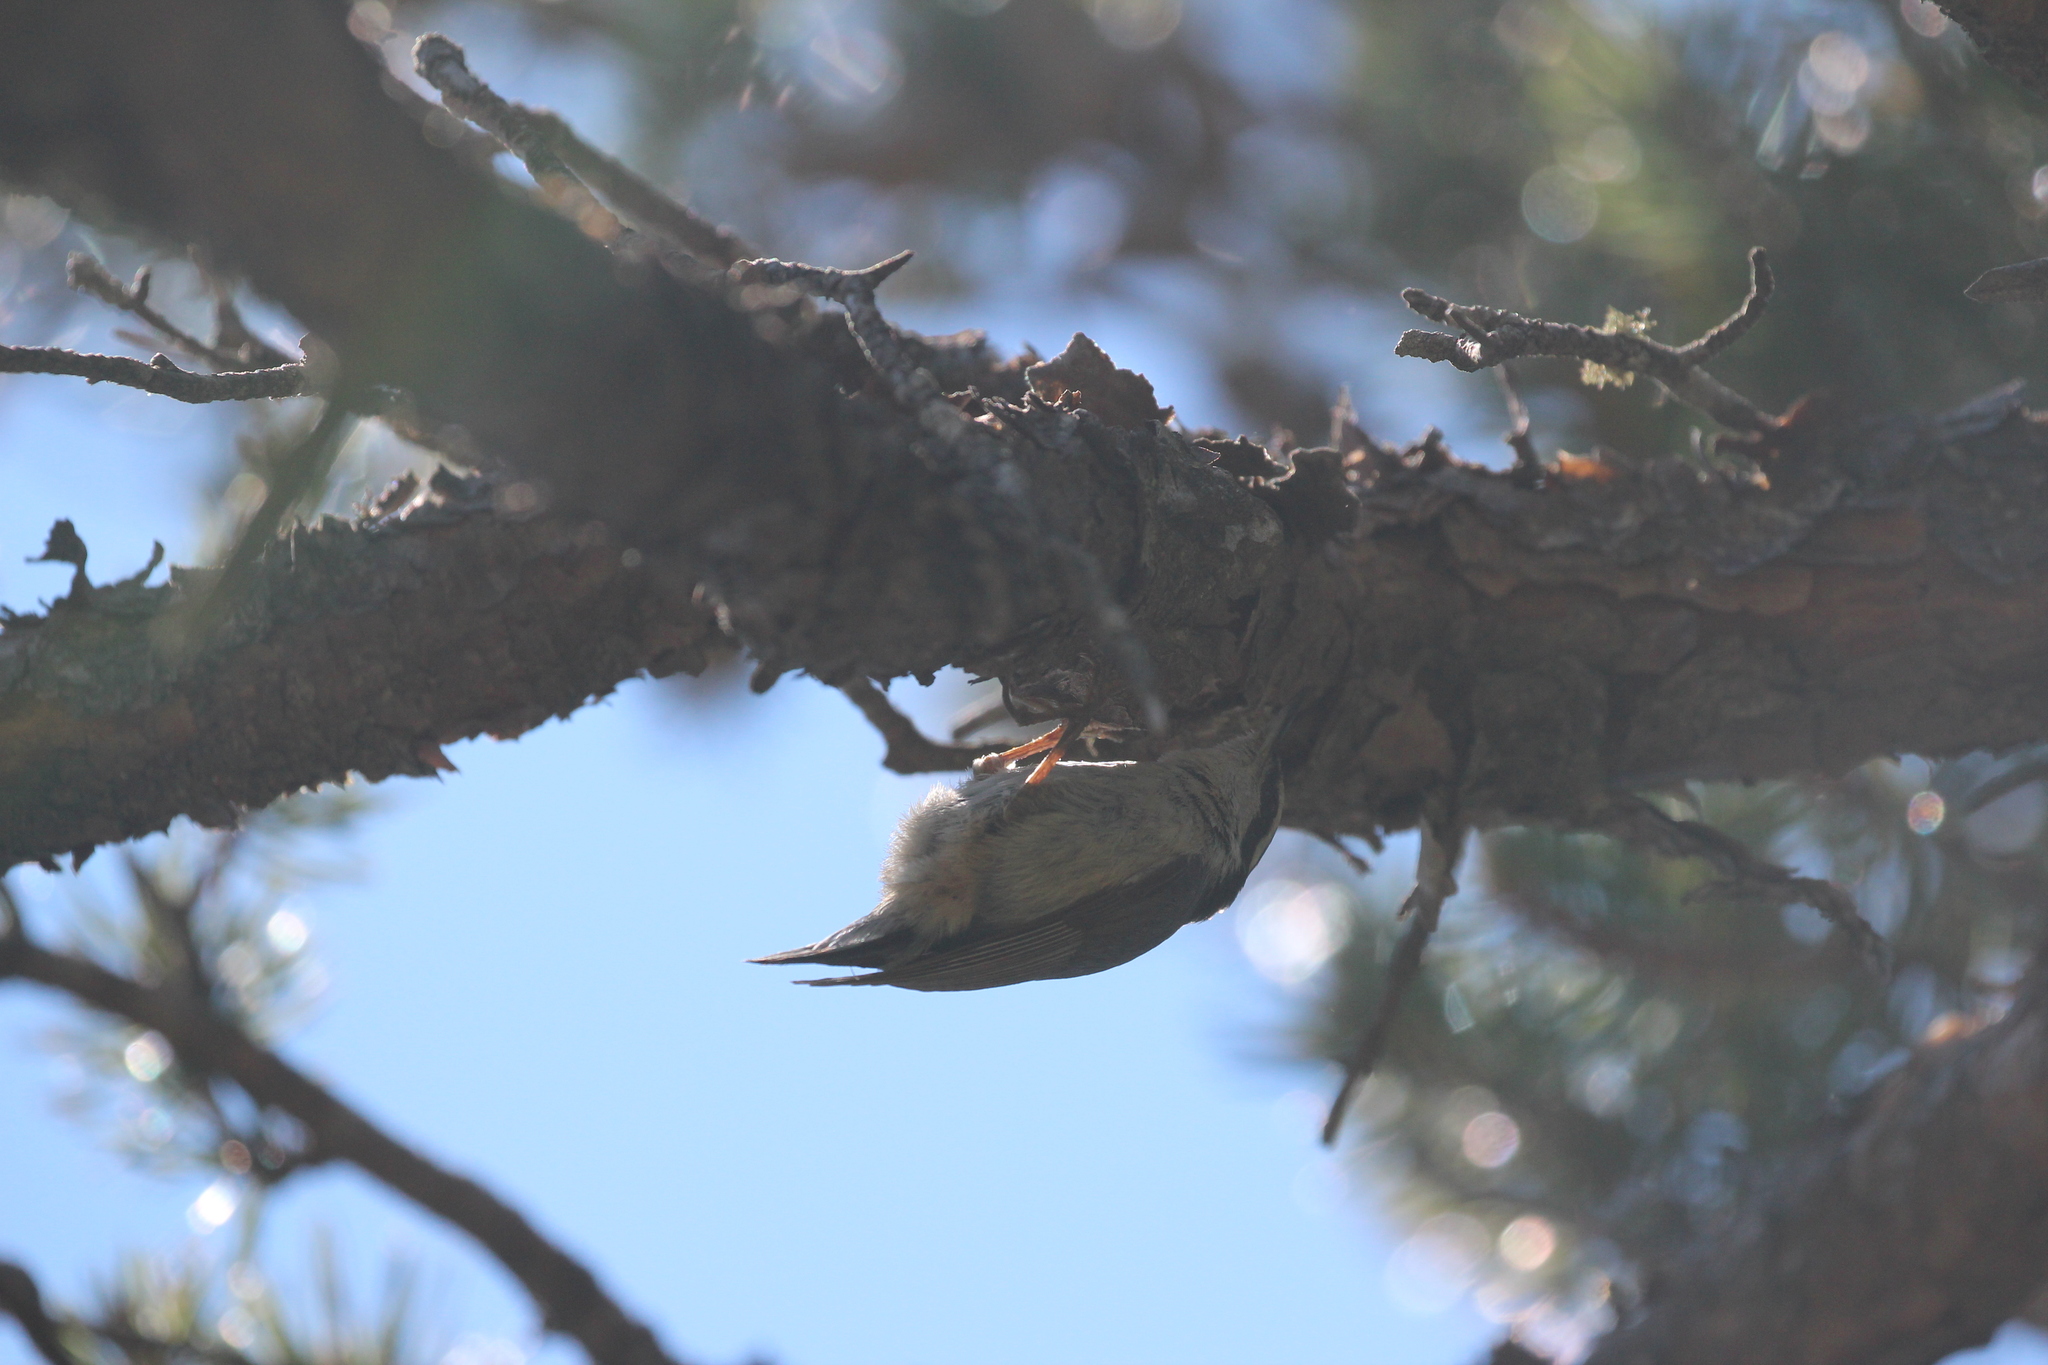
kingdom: Animalia
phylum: Chordata
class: Aves
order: Passeriformes
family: Sittidae
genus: Sitta
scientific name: Sitta canadensis
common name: Red-breasted nuthatch
